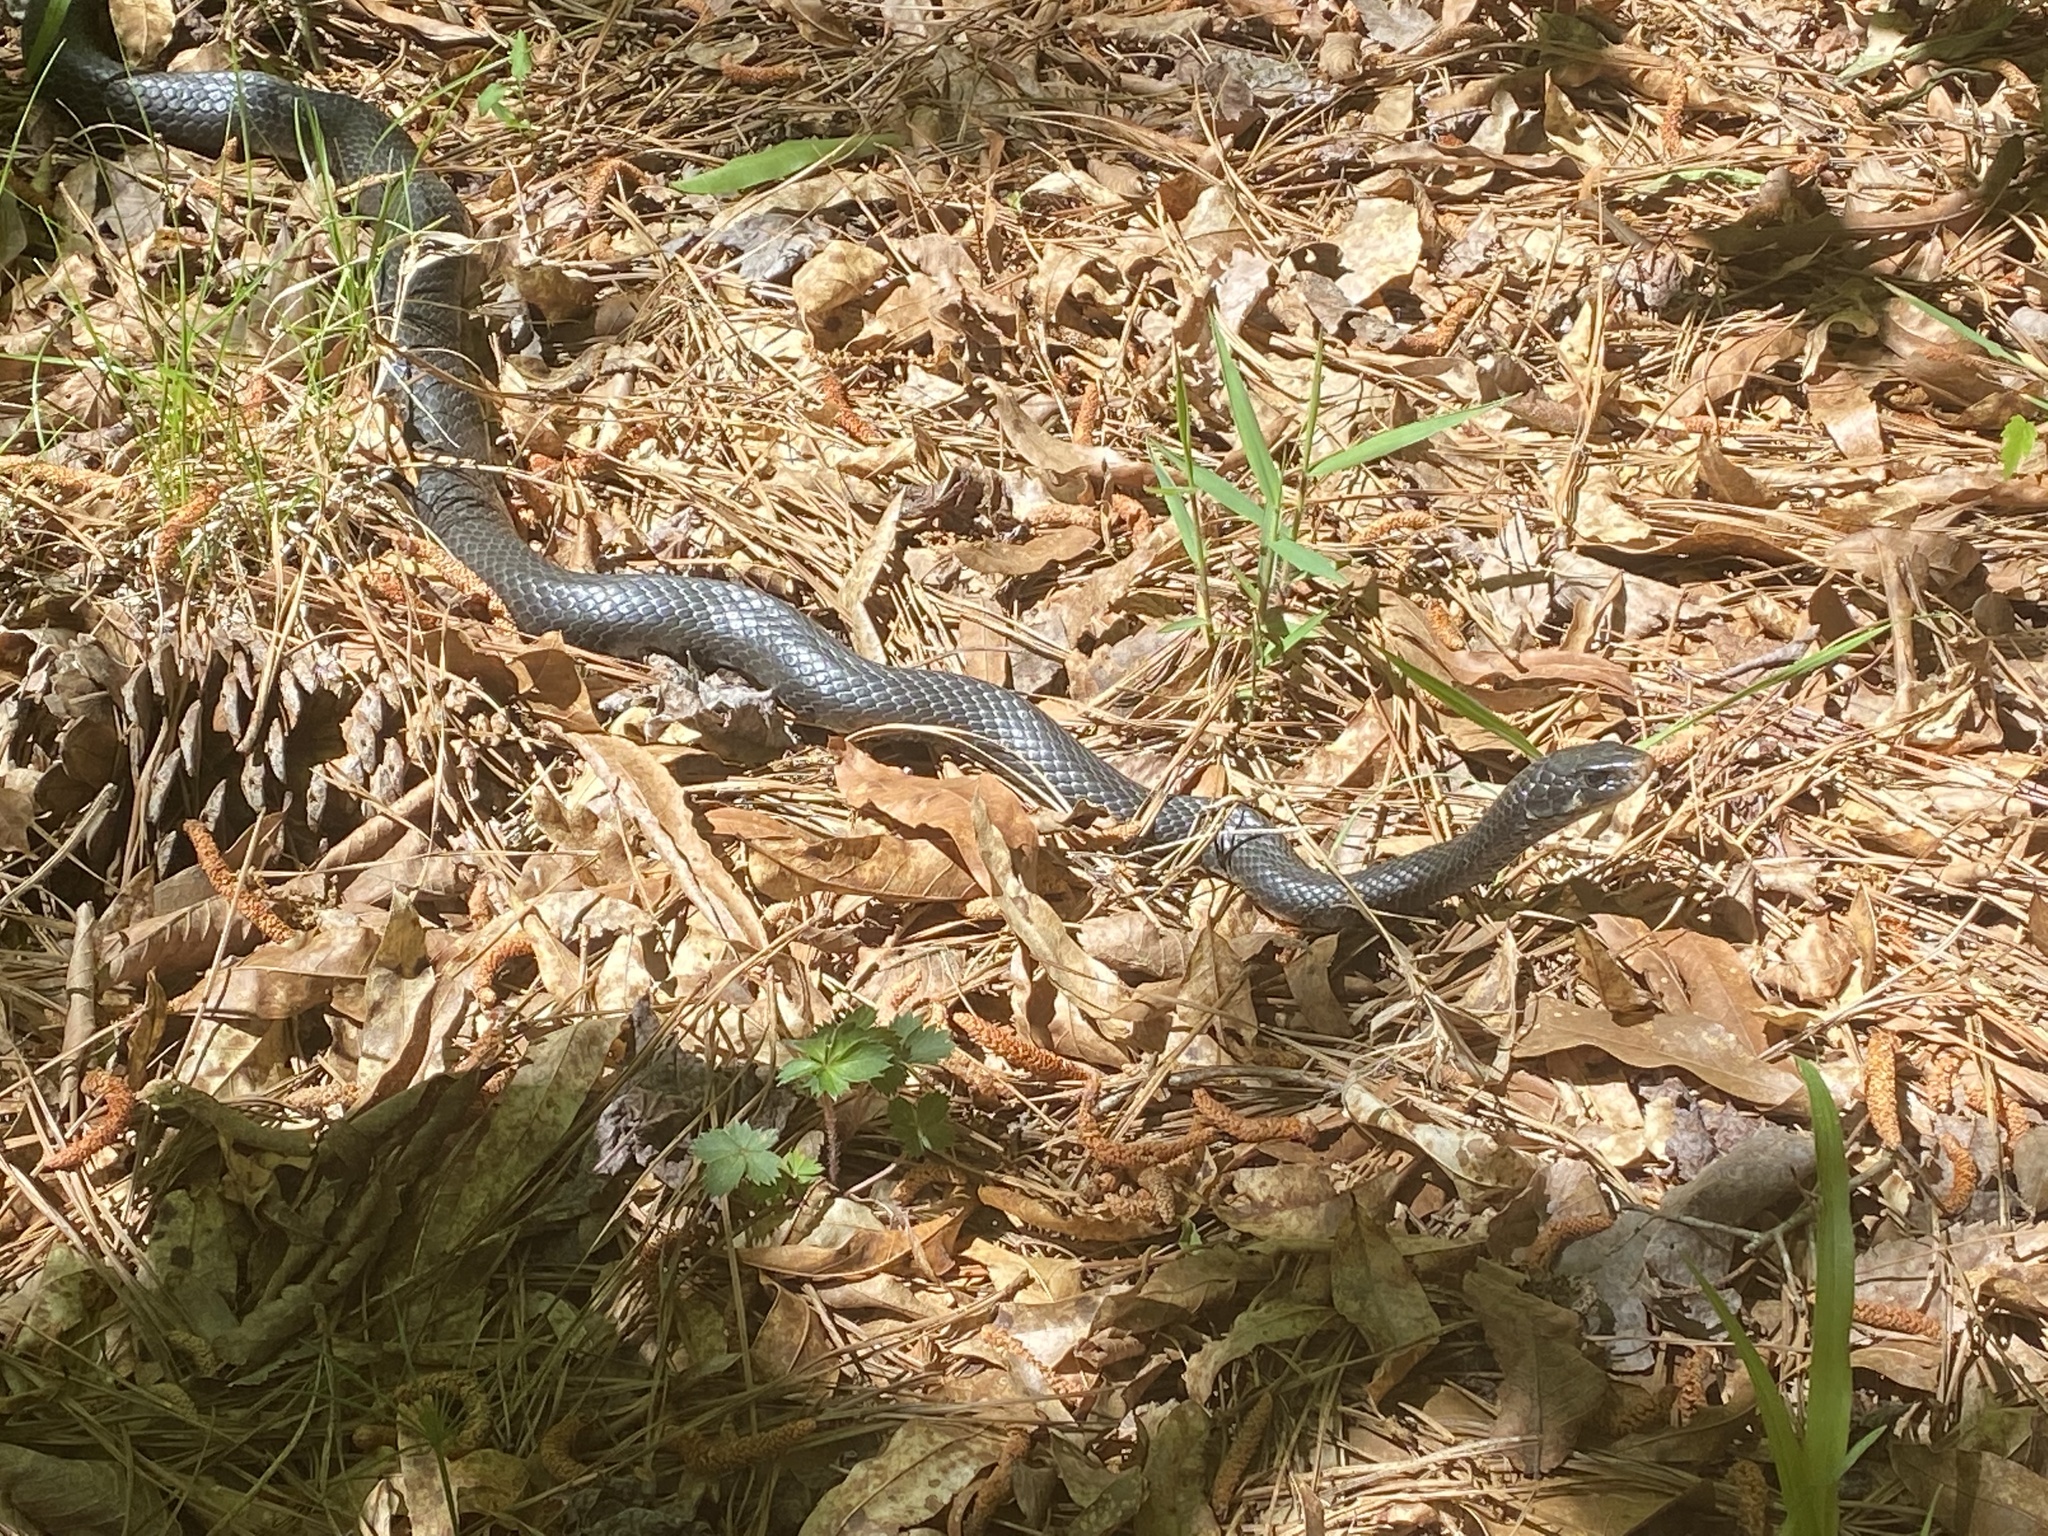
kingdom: Animalia
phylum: Chordata
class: Squamata
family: Colubridae
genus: Coluber
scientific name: Coluber constrictor
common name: Eastern racer
